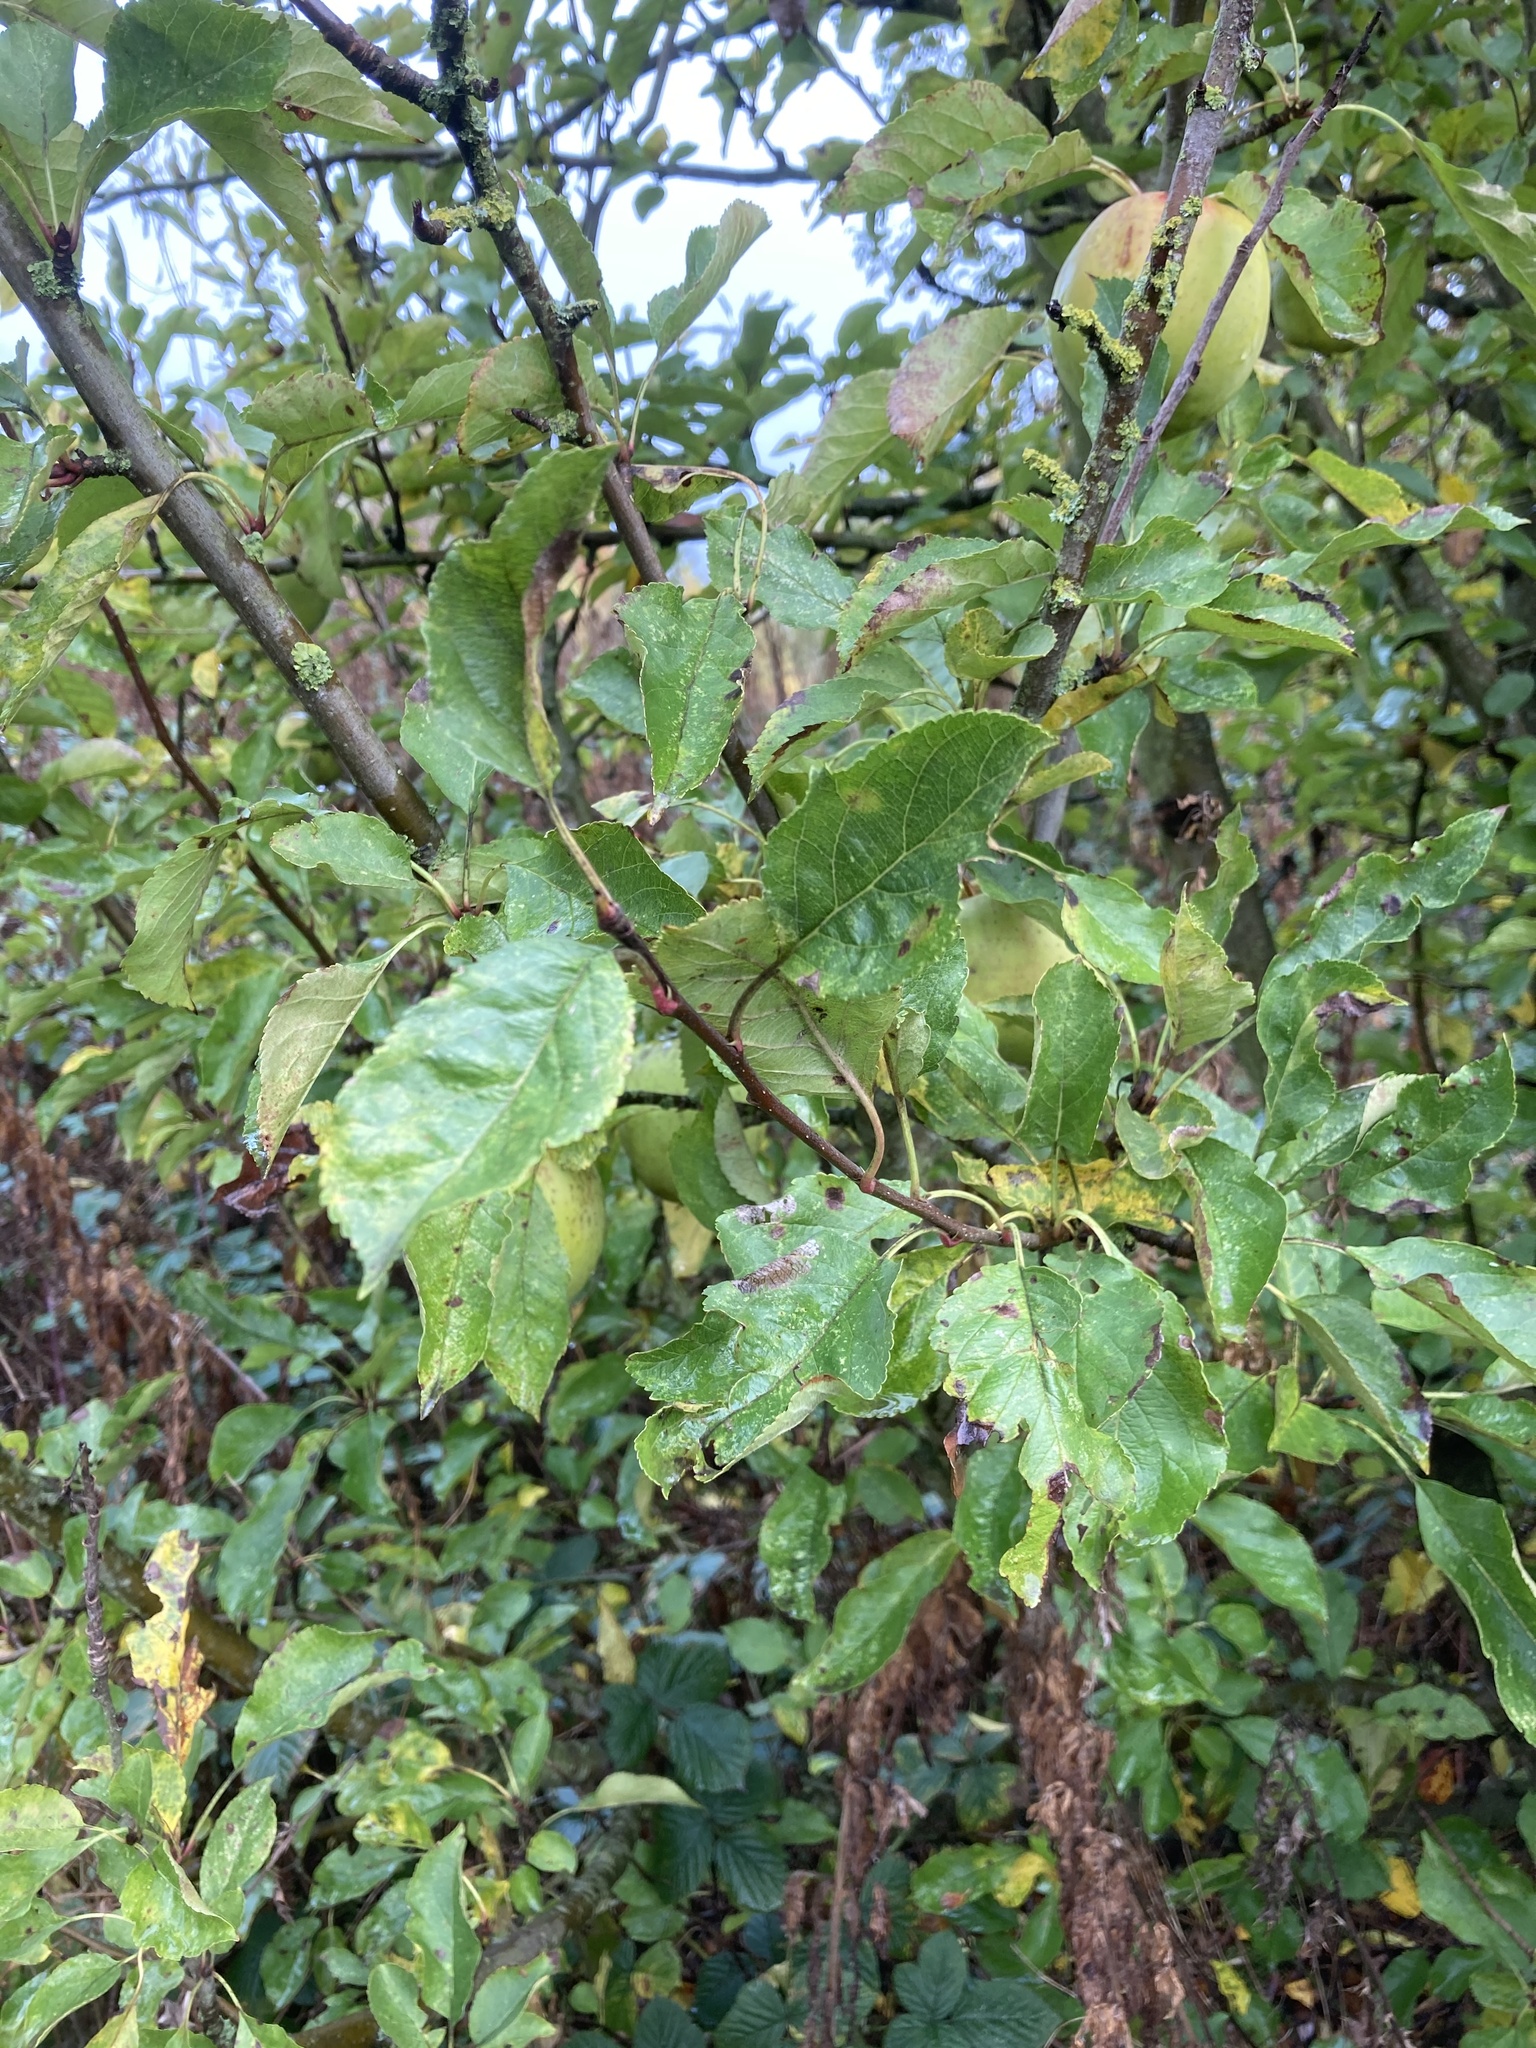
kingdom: Plantae
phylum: Tracheophyta
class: Magnoliopsida
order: Rosales
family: Rosaceae
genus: Malus
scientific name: Malus domestica
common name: Apple
